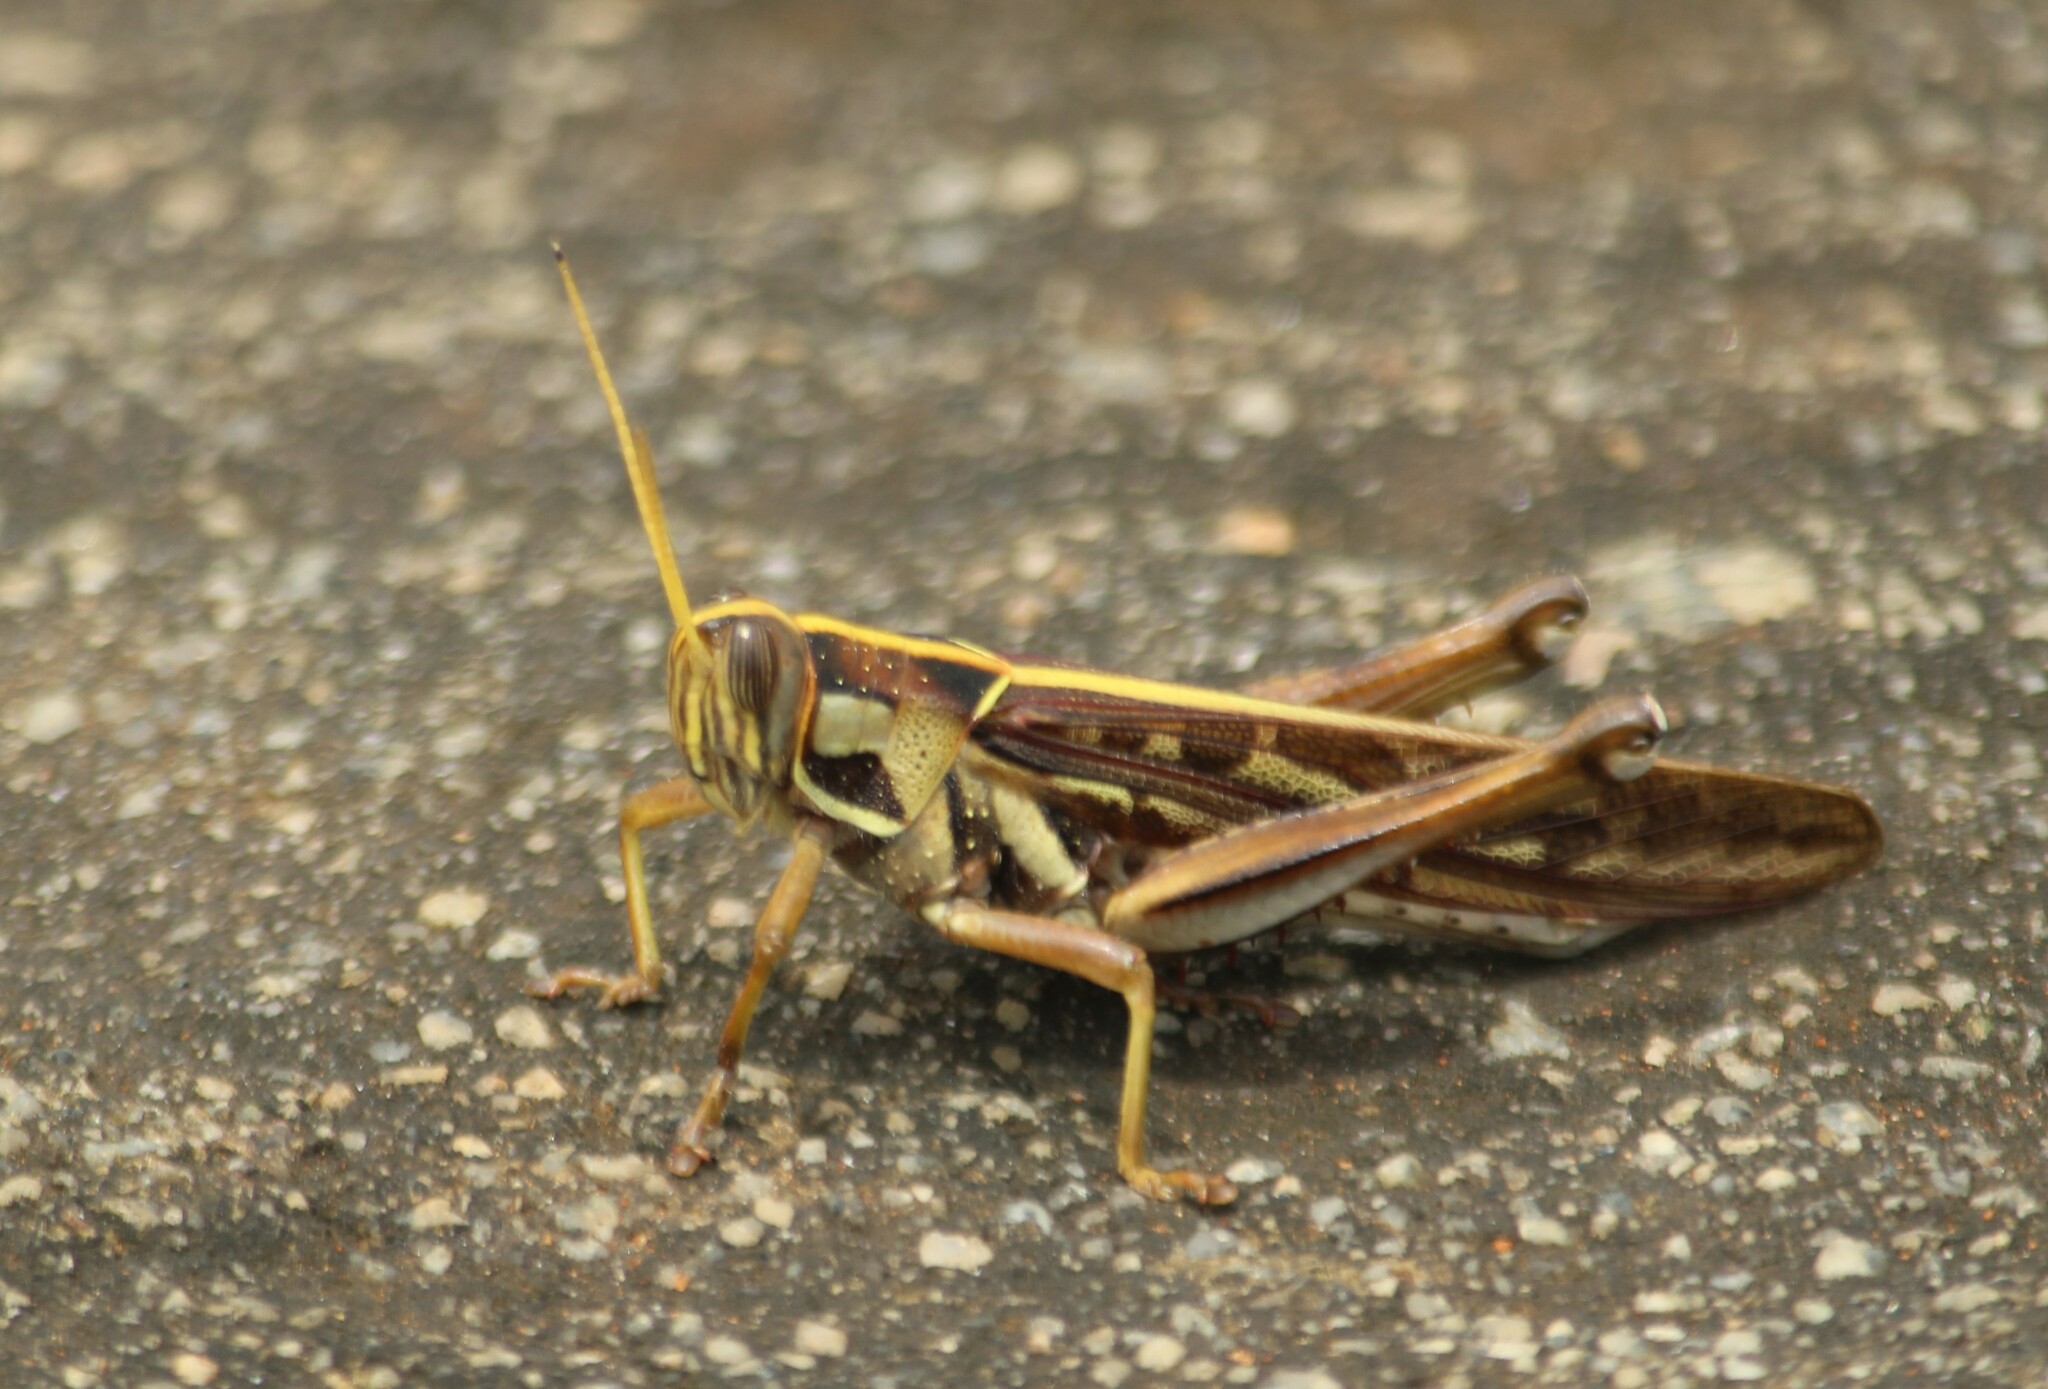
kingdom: Animalia
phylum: Arthropoda
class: Insecta
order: Orthoptera
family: Acrididae
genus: Cyrtacanthacris
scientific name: Cyrtacanthacris tatarica
